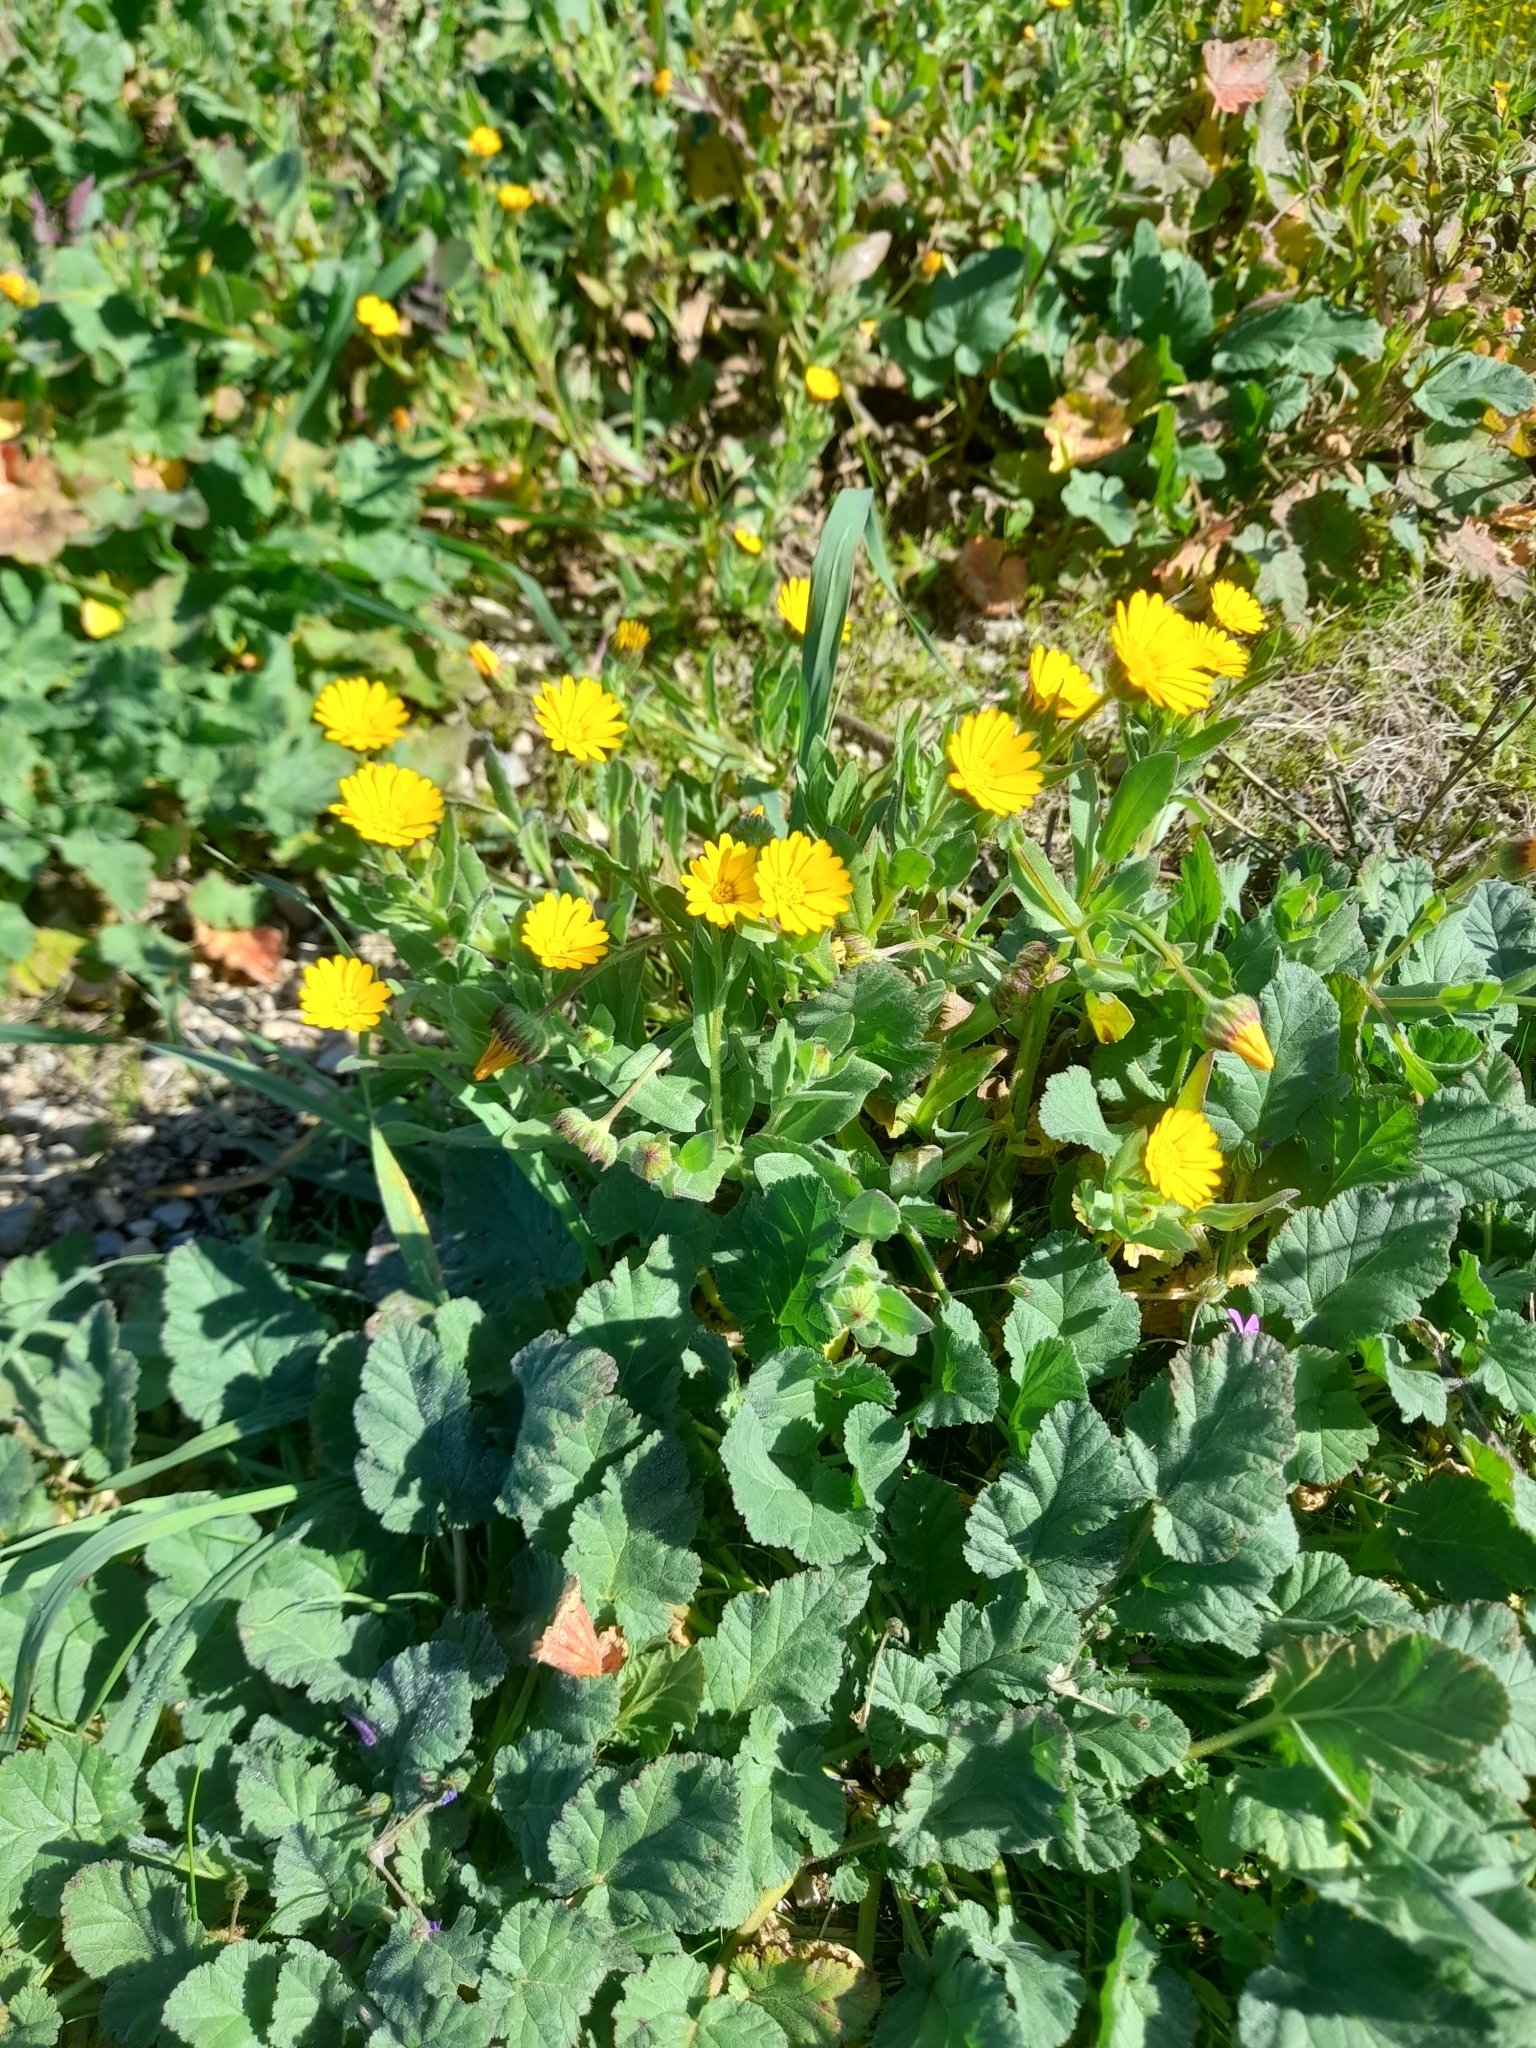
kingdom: Plantae
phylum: Tracheophyta
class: Magnoliopsida
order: Asterales
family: Asteraceae
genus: Calendula
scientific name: Calendula arvensis
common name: Field marigold
